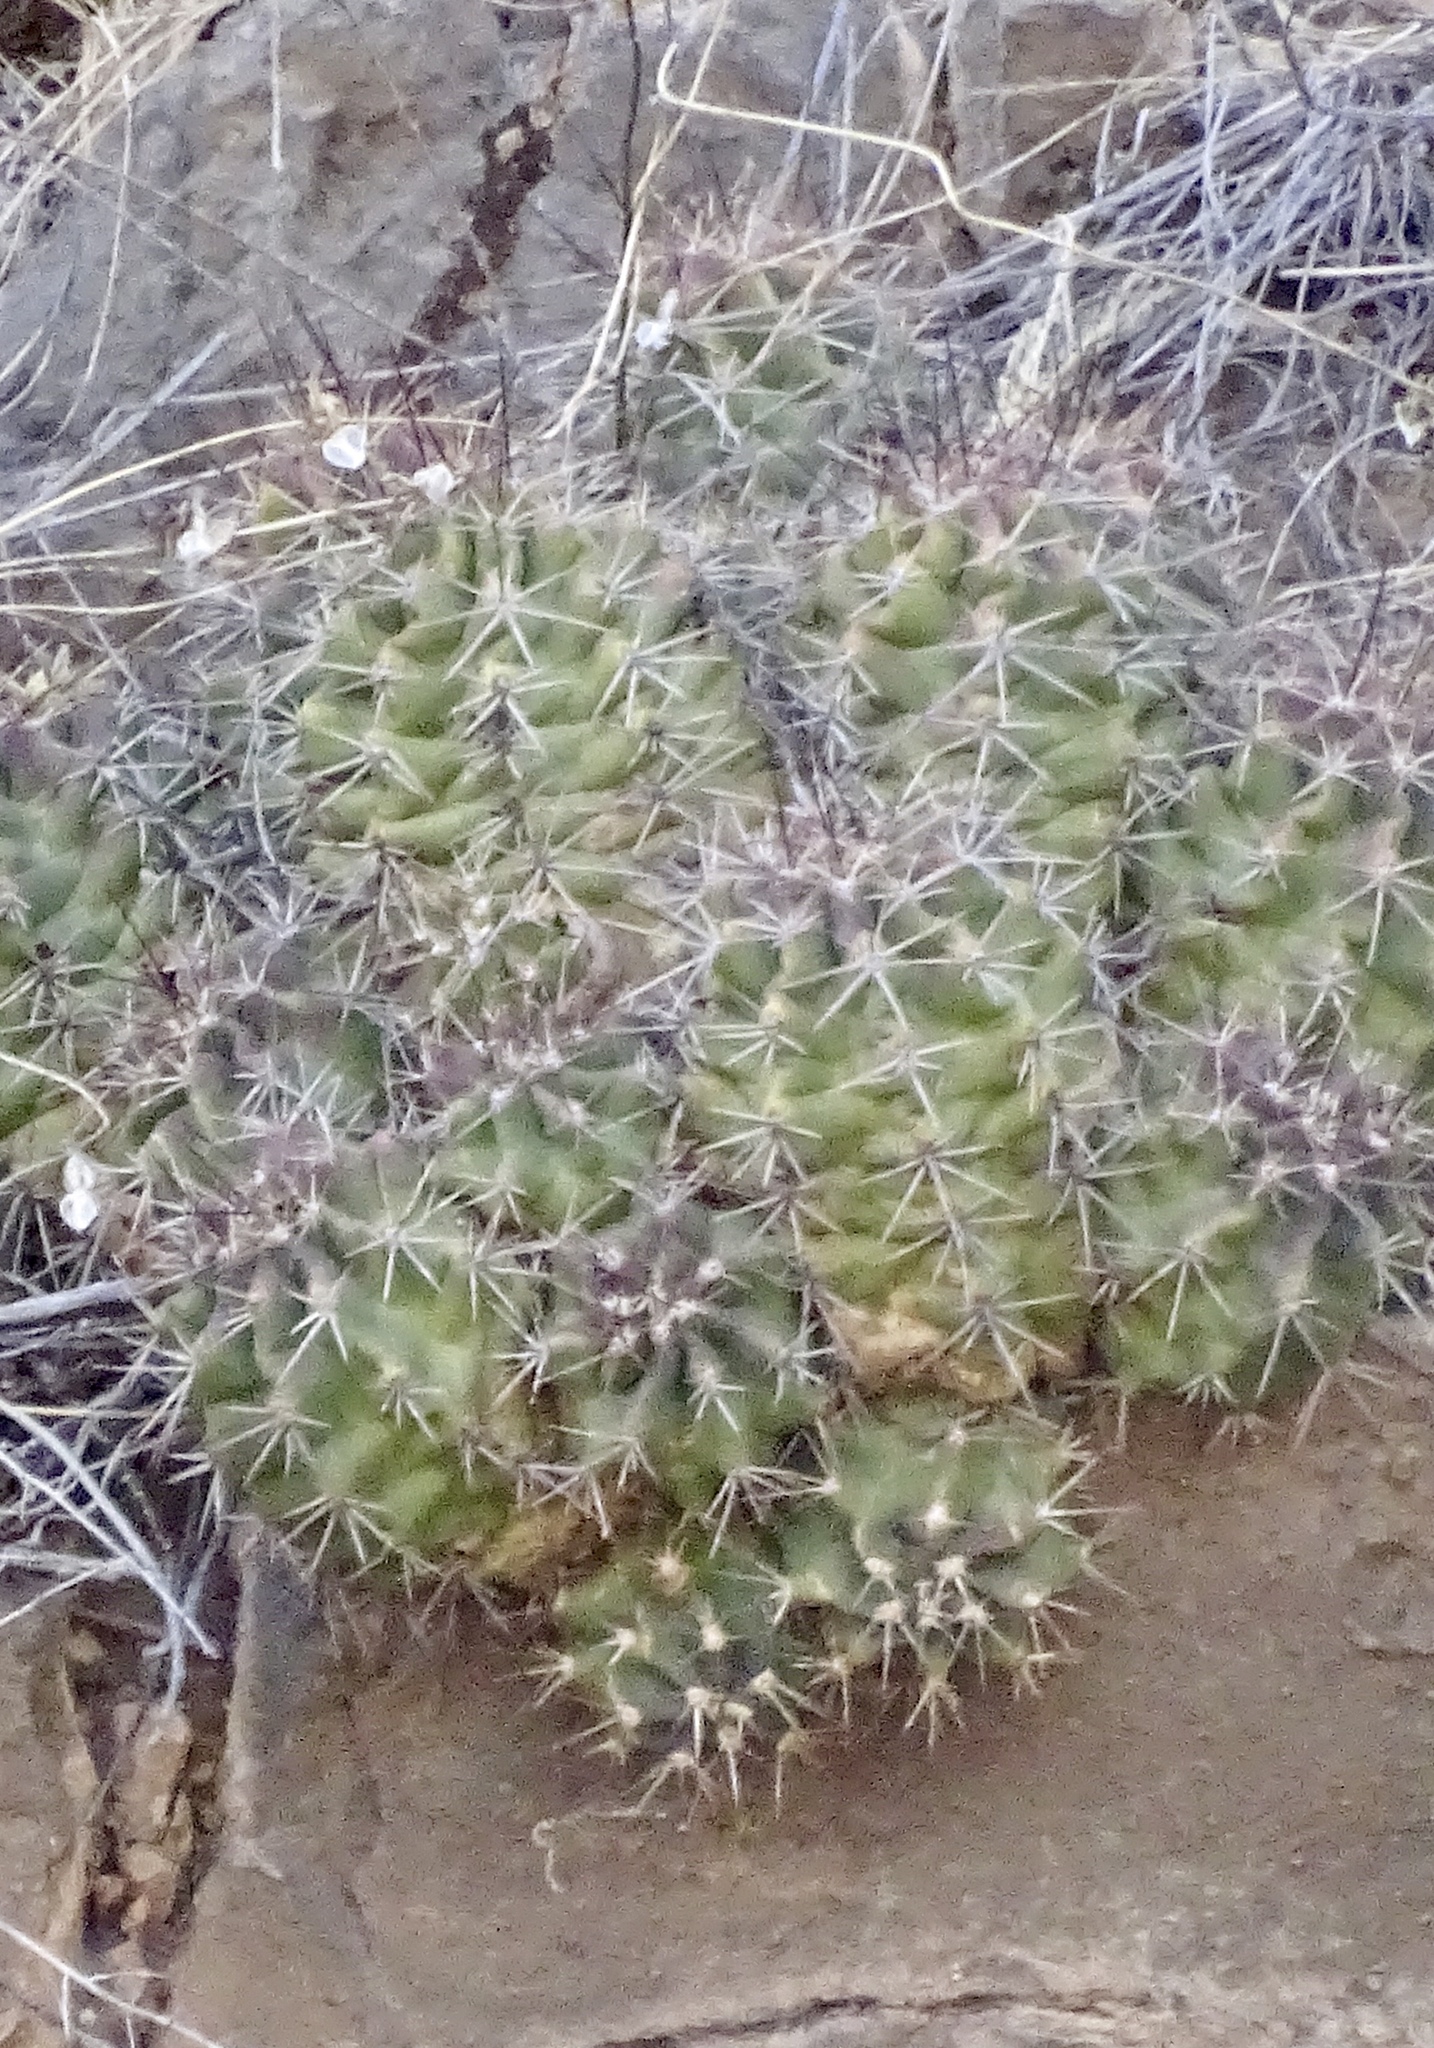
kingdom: Plantae
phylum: Tracheophyta
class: Magnoliopsida
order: Caryophyllales
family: Cactaceae
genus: Echinocereus
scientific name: Echinocereus coccineus
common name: Scarlet hedgehog cactus
